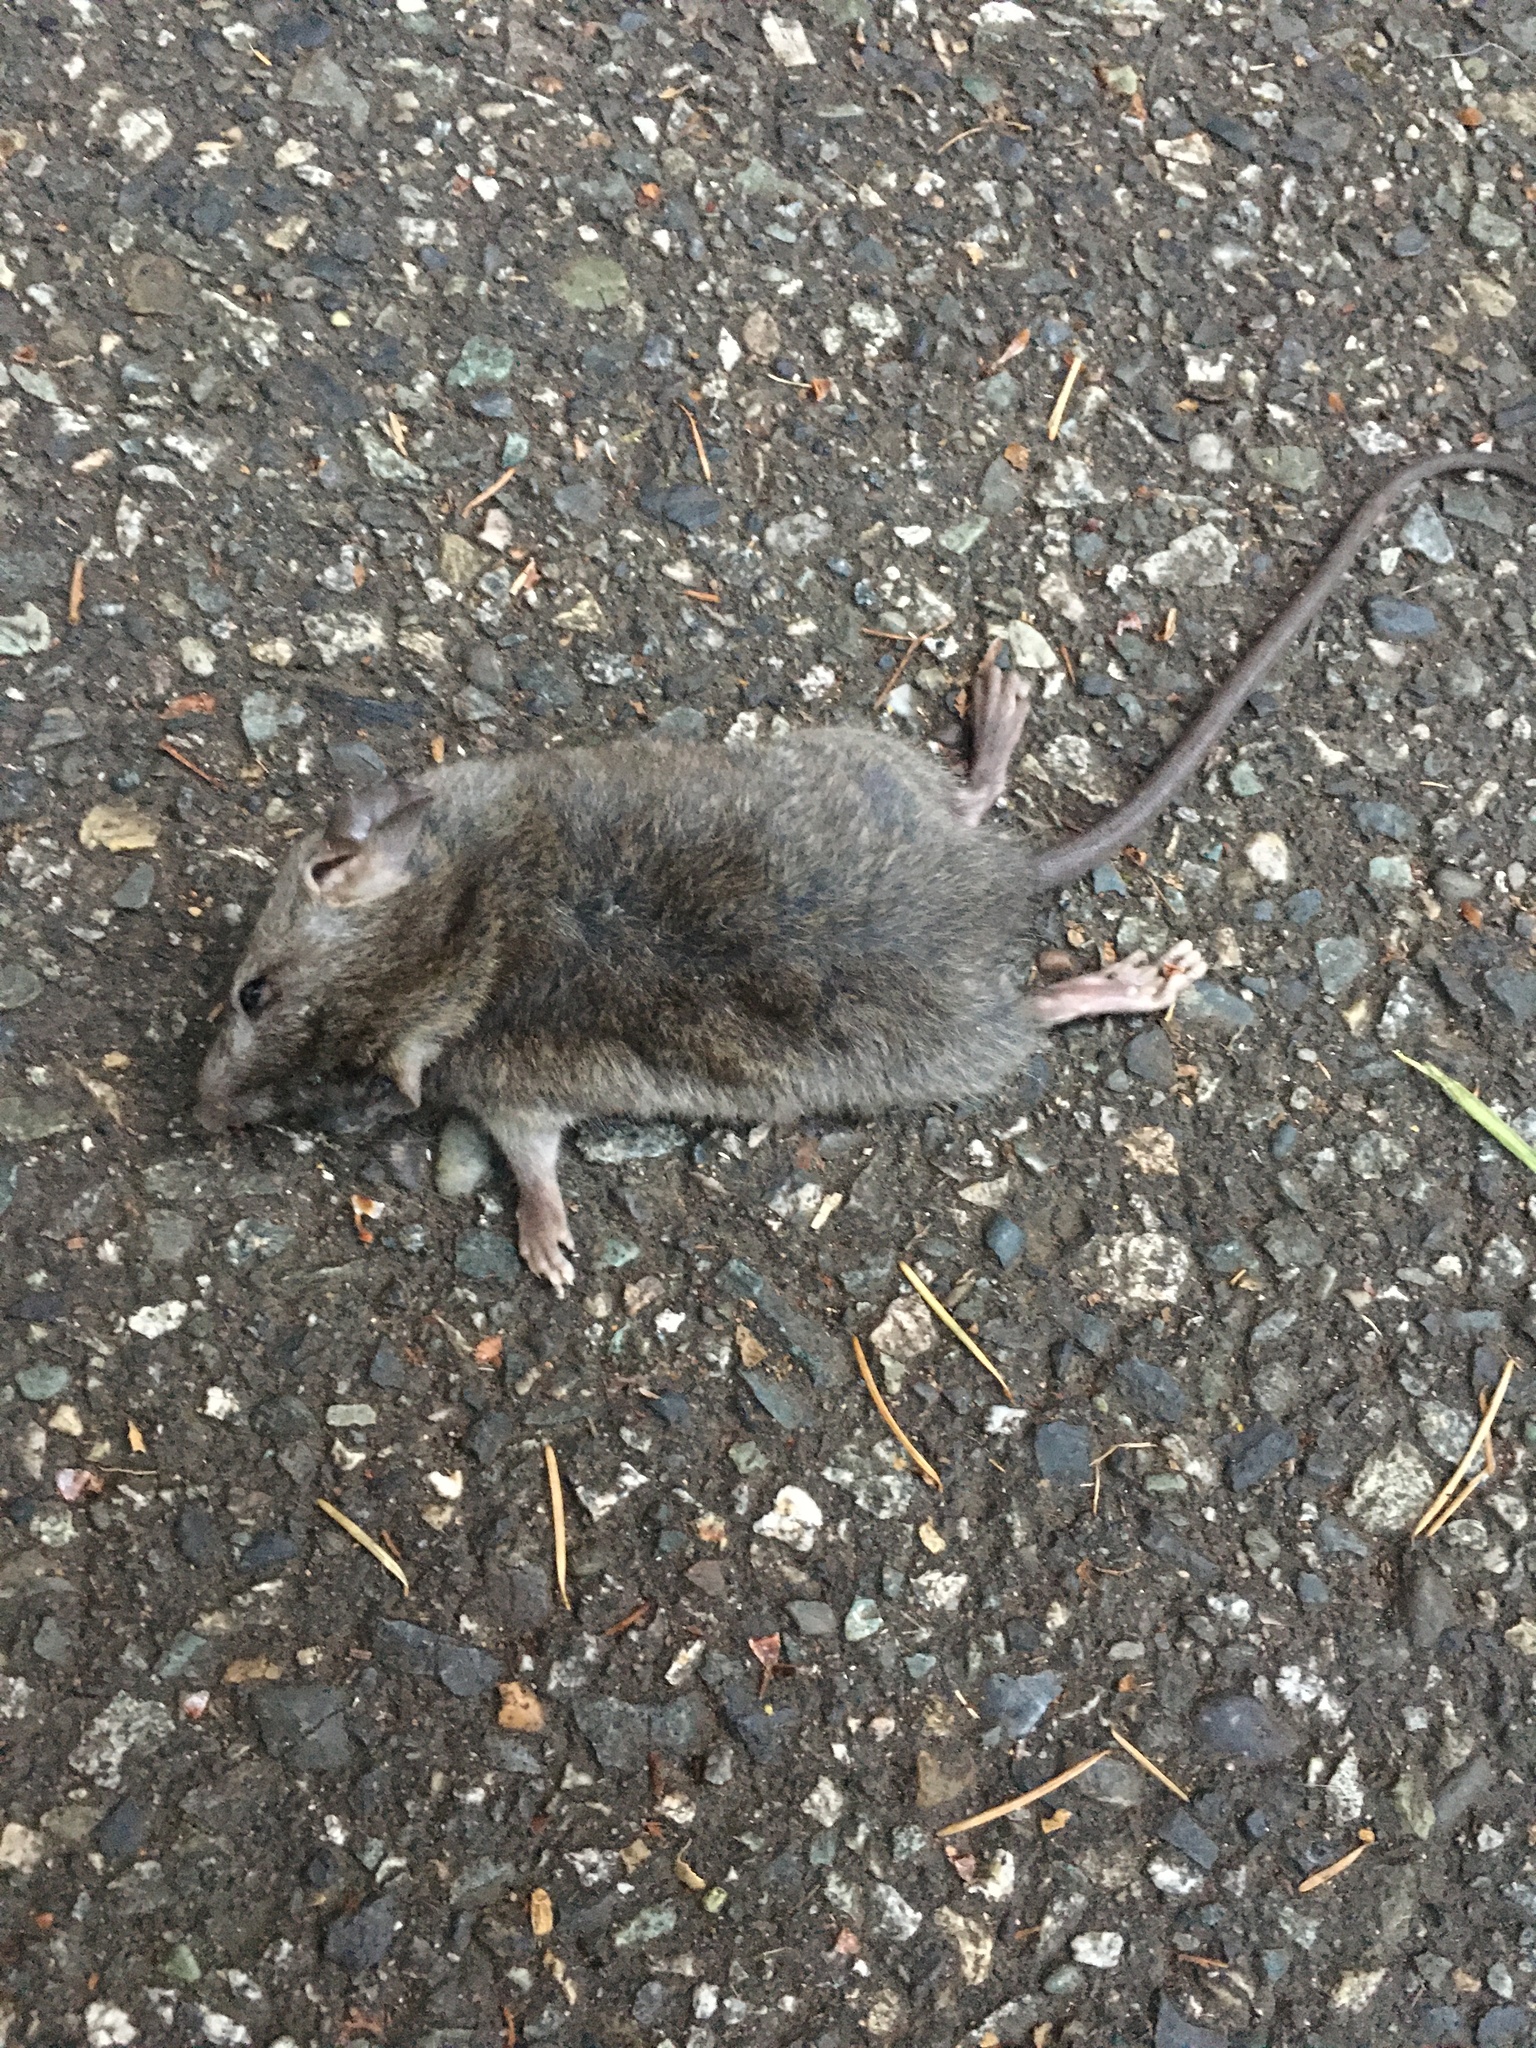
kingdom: Animalia
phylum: Chordata
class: Mammalia
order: Rodentia
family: Muridae
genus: Rattus
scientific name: Rattus rattus
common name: Black rat
